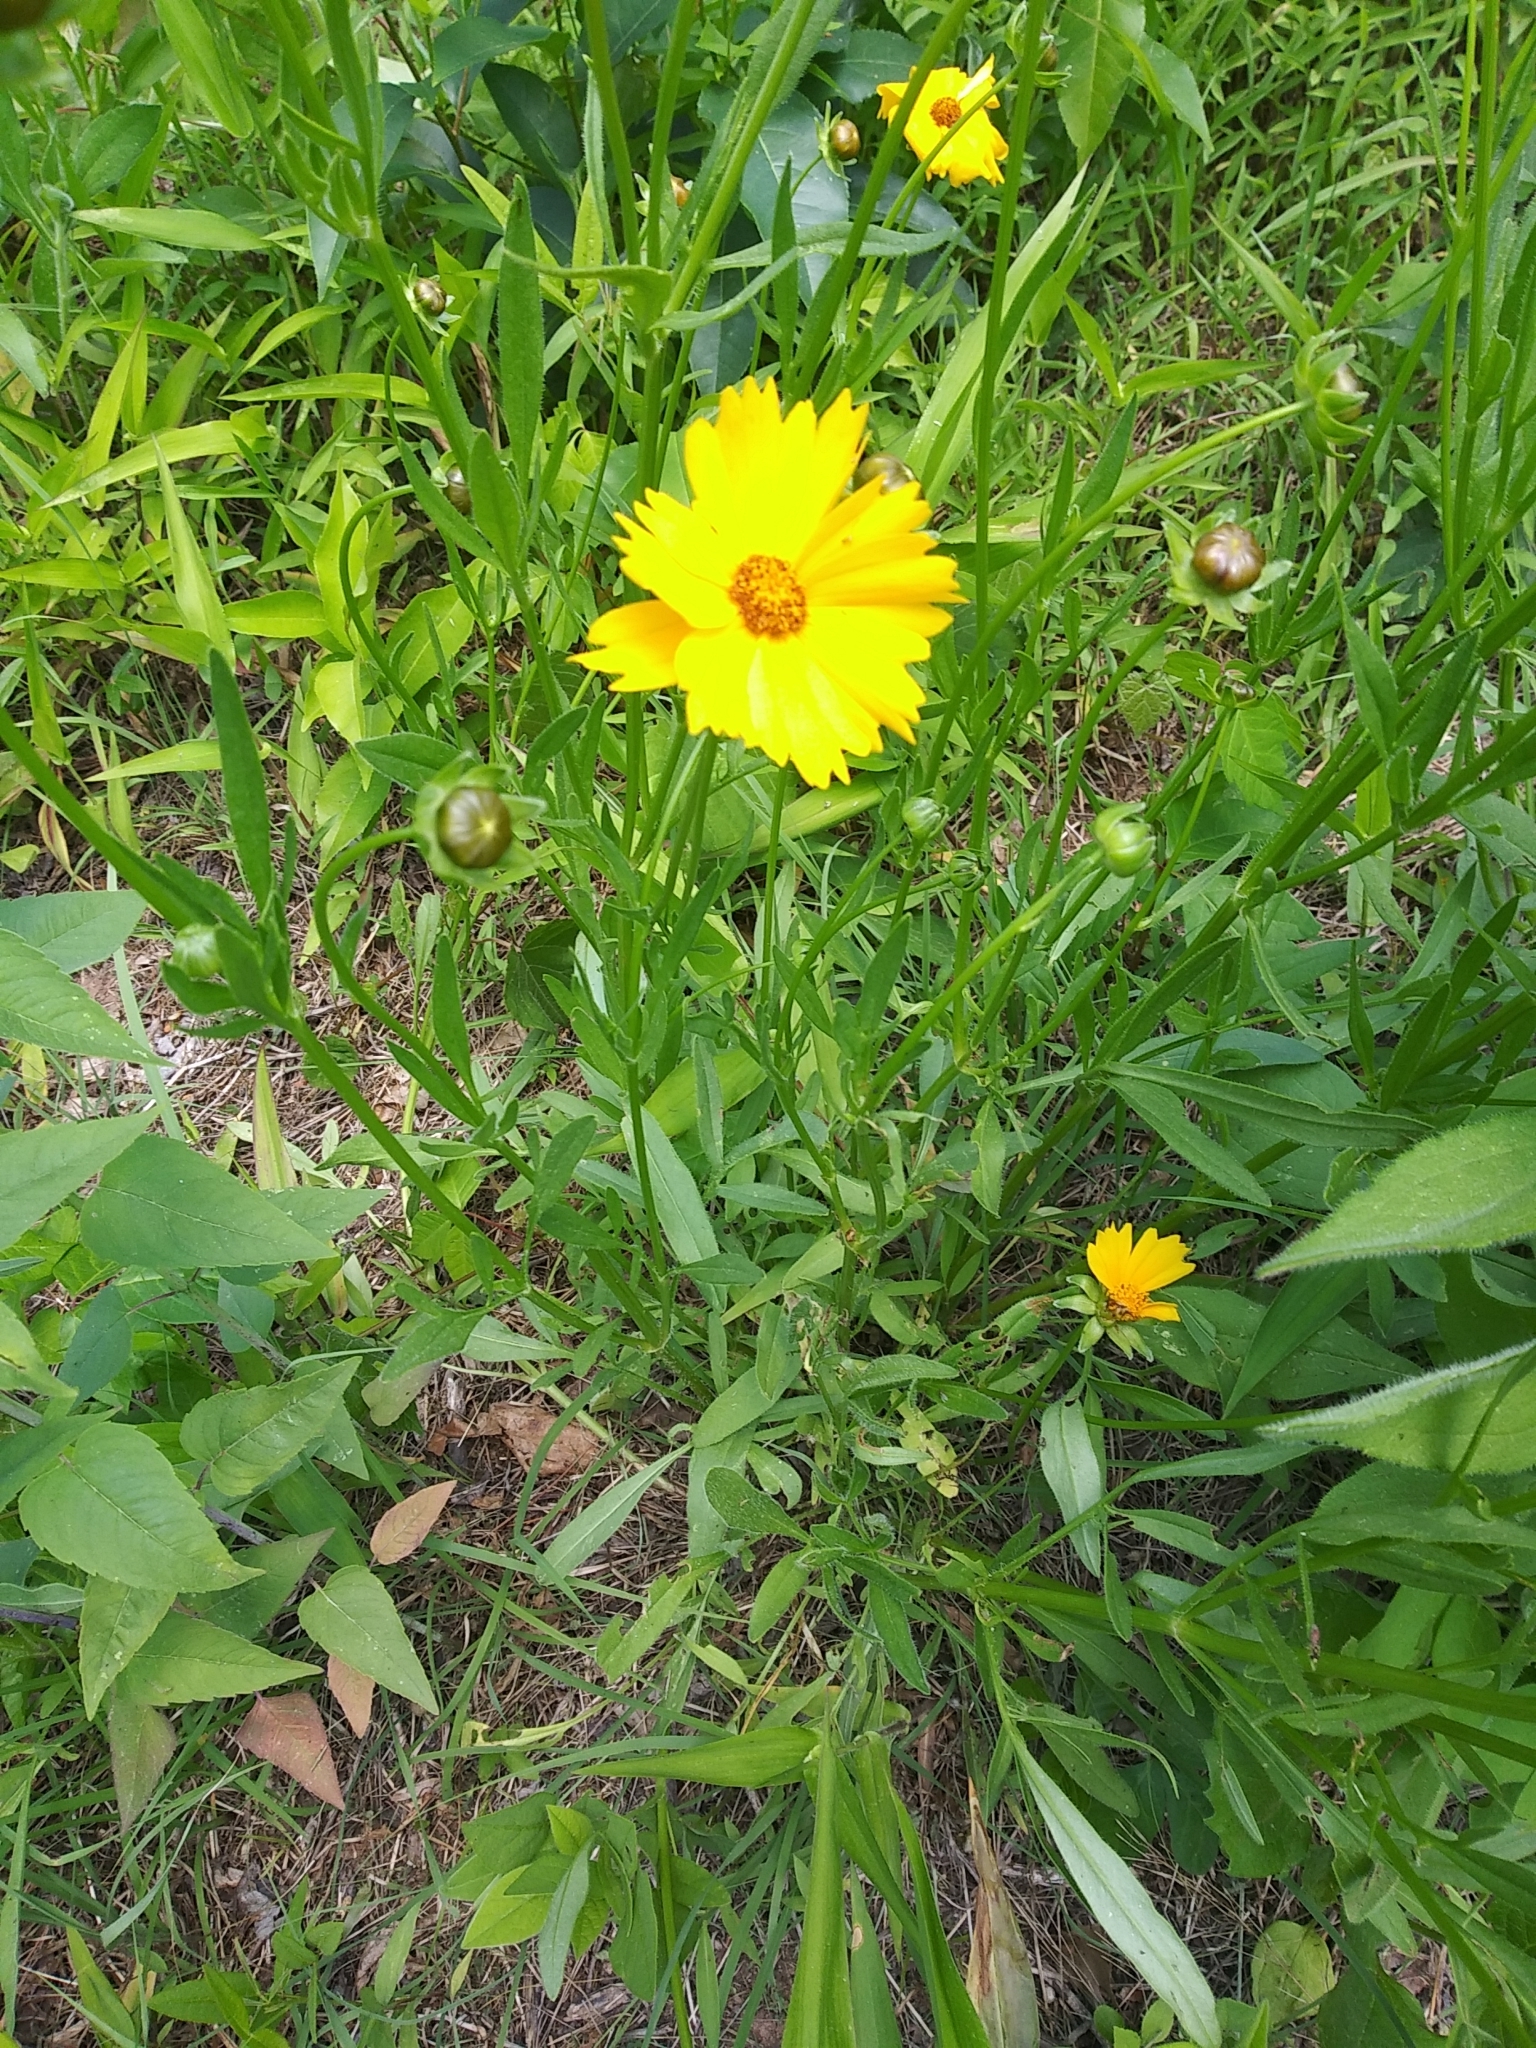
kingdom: Plantae
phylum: Tracheophyta
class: Magnoliopsida
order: Asterales
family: Asteraceae
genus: Coreopsis
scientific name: Coreopsis lanceolata
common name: Garden coreopsis
